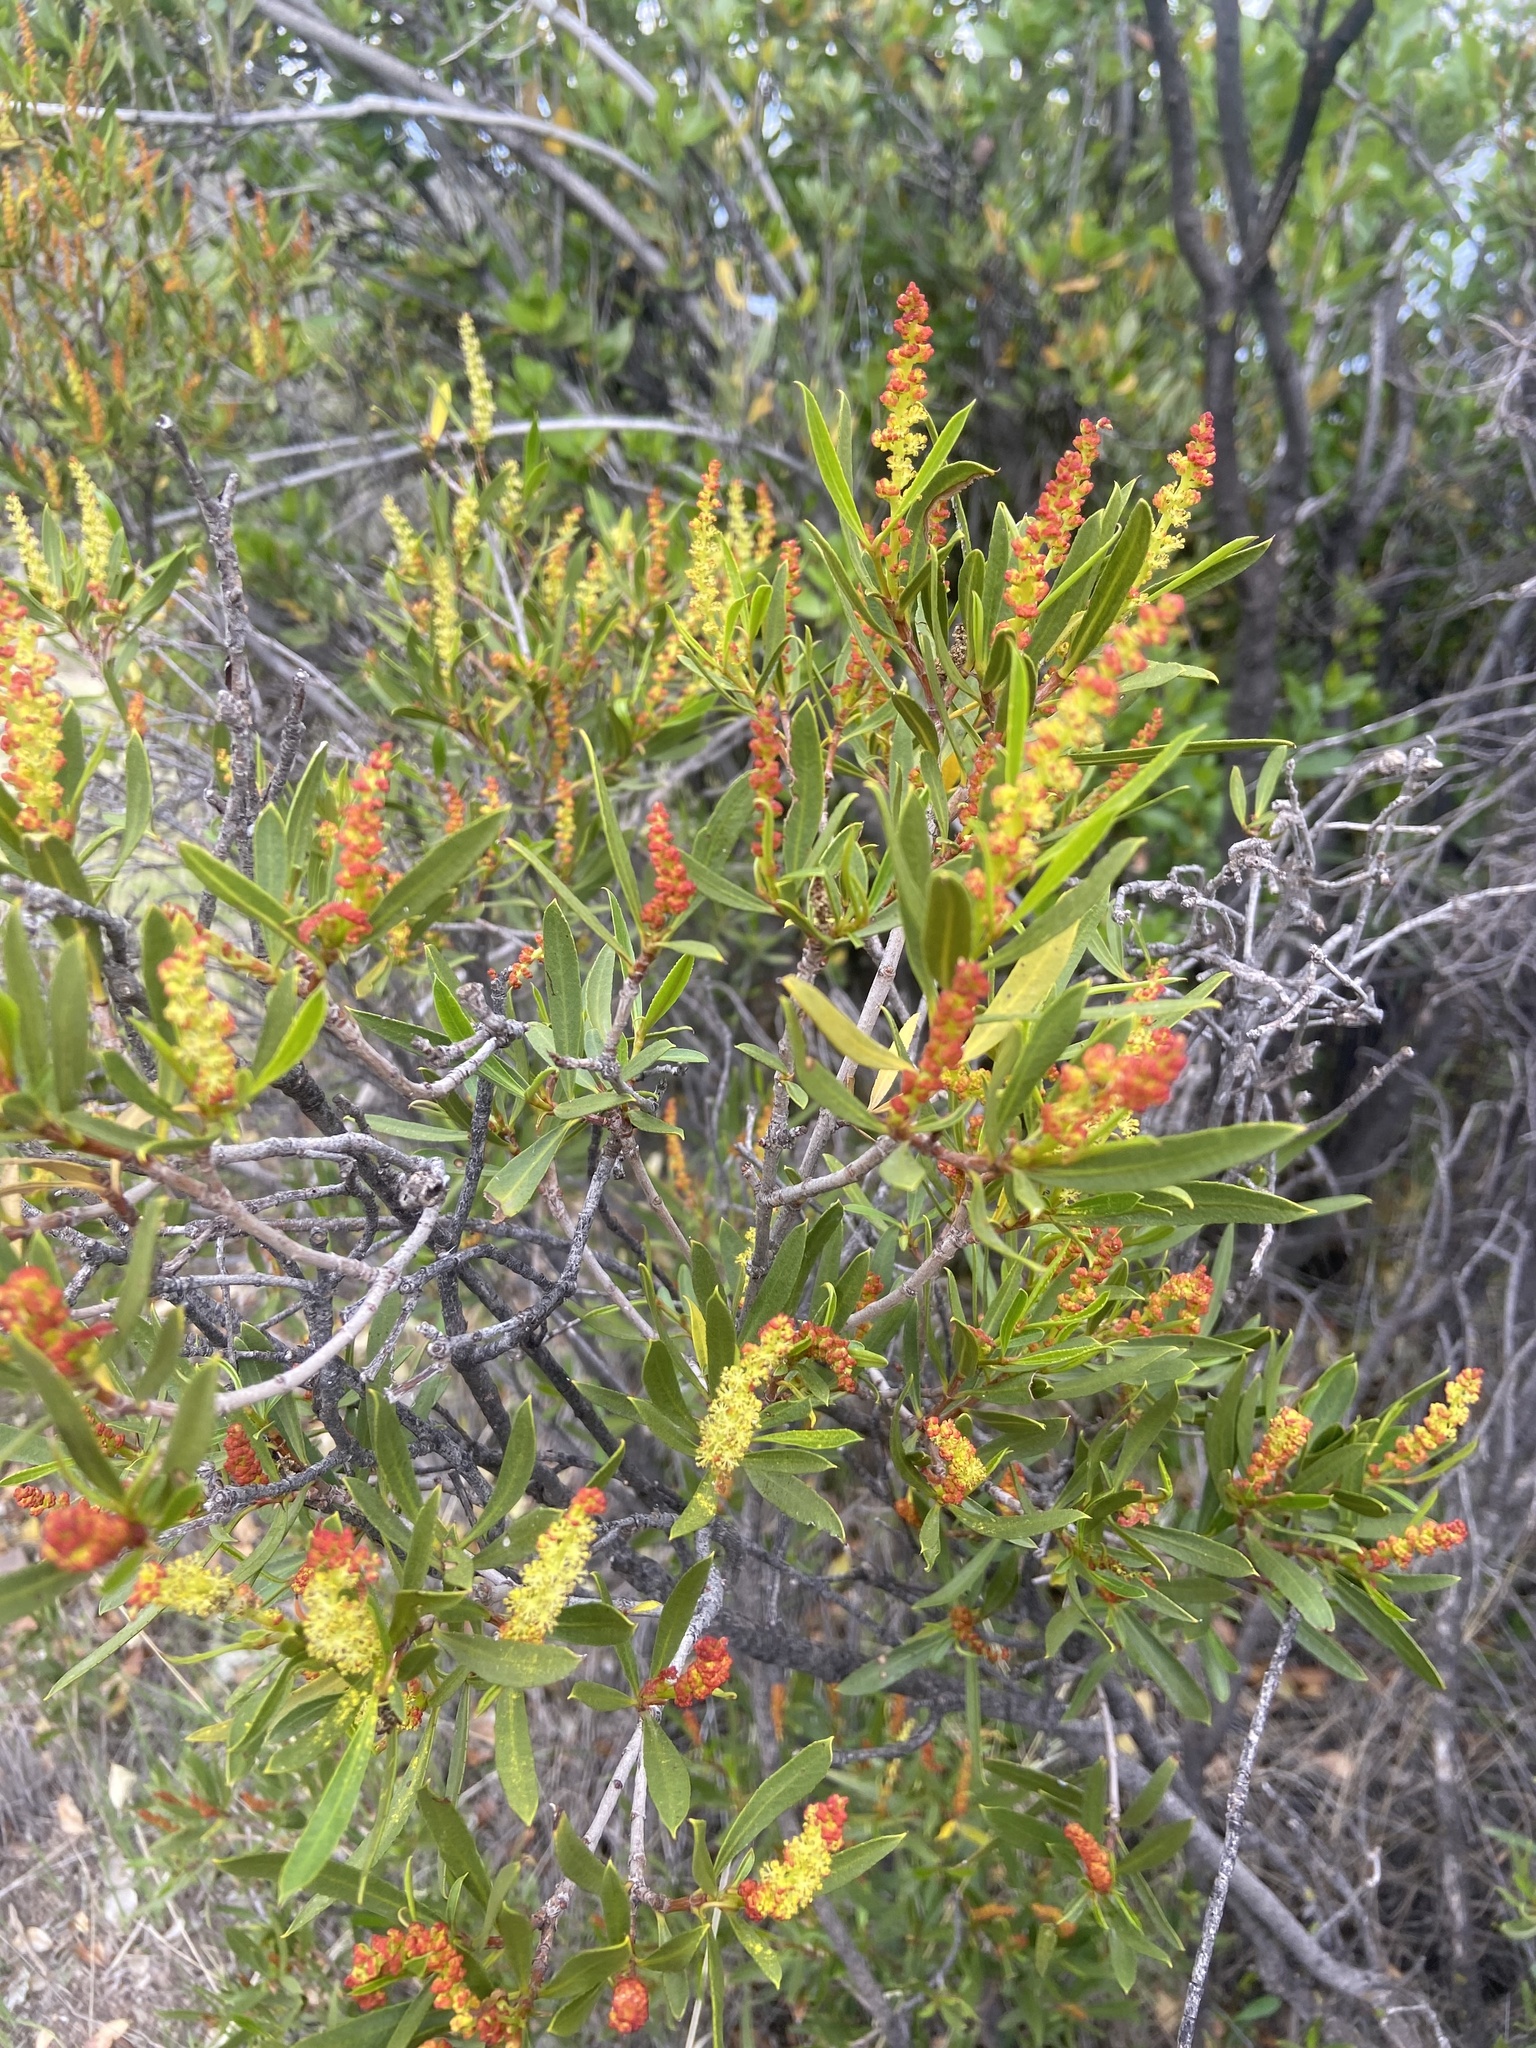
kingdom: Plantae
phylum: Tracheophyta
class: Magnoliopsida
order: Malpighiales
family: Euphorbiaceae
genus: Colliguaja
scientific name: Colliguaja odorifera
